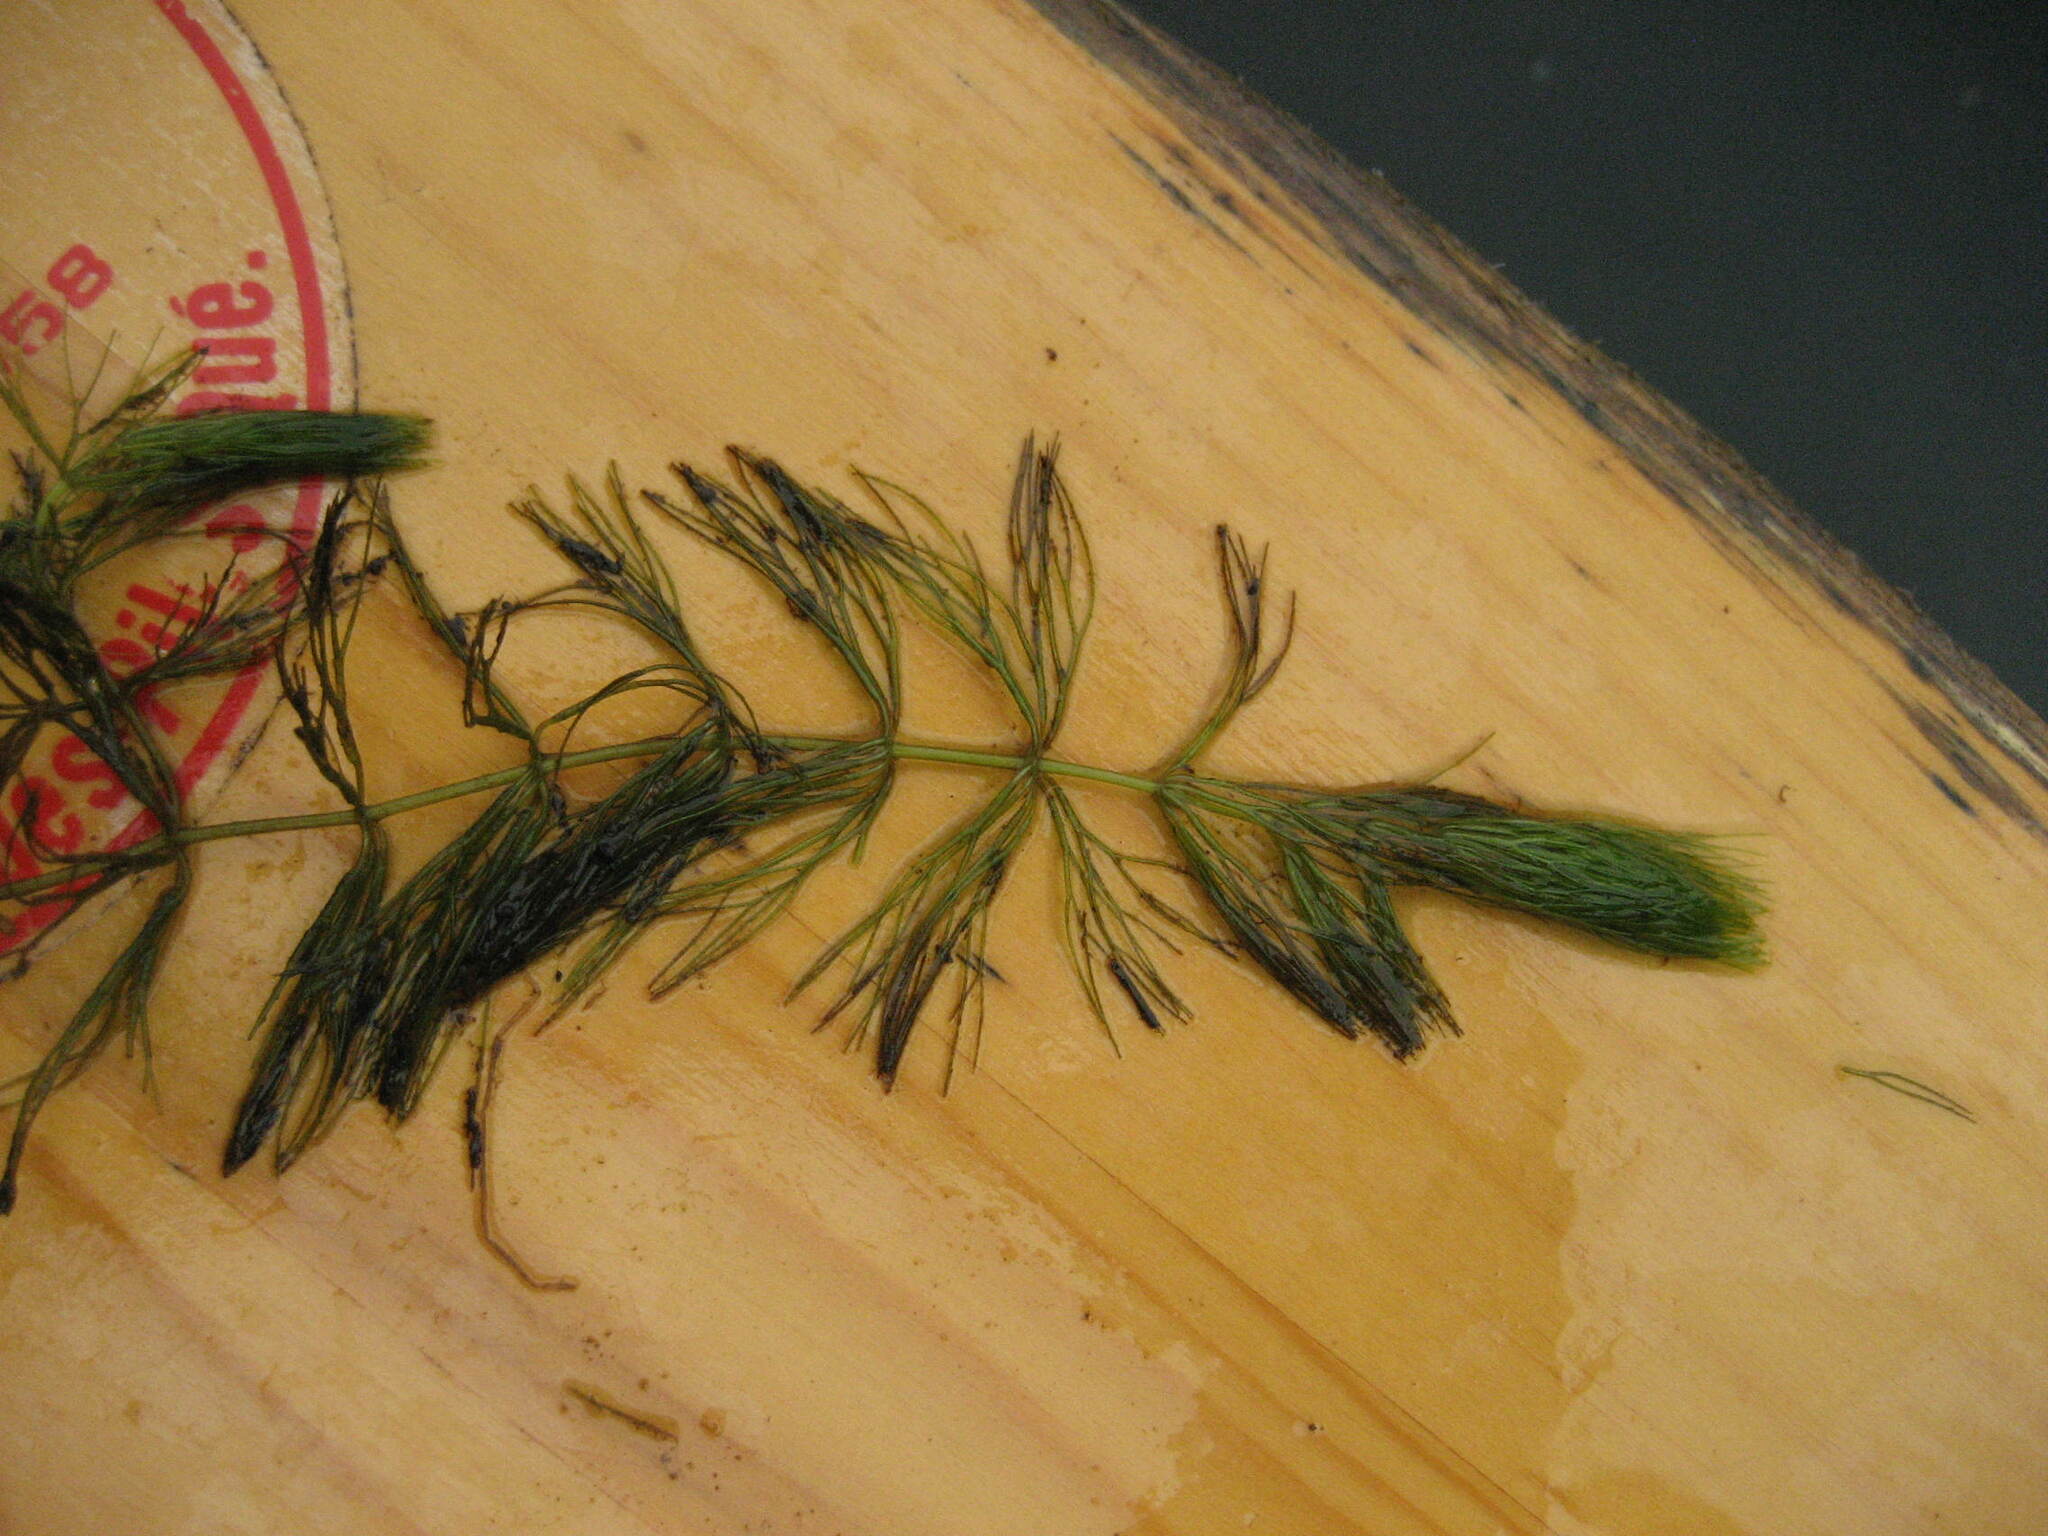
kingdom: Plantae
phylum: Tracheophyta
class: Magnoliopsida
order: Ceratophyllales
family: Ceratophyllaceae
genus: Ceratophyllum
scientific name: Ceratophyllum echinatum
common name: Prickly coontail
